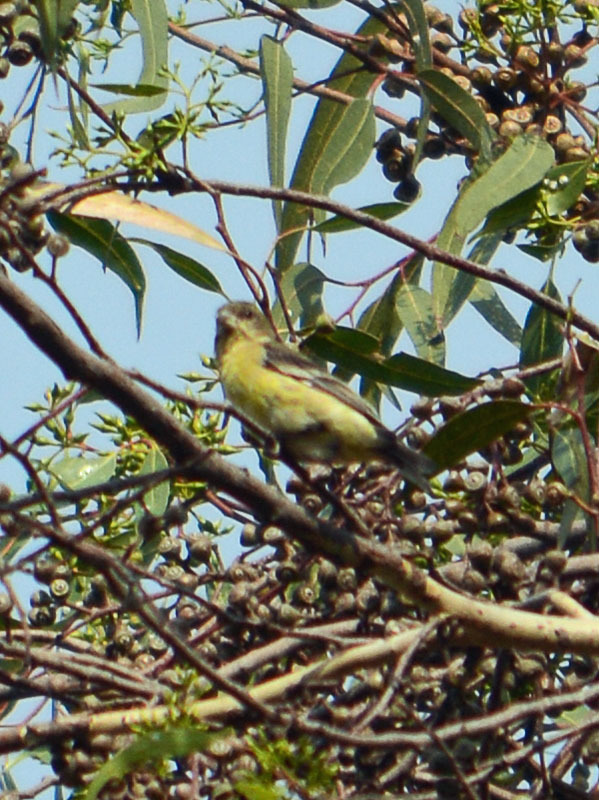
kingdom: Animalia
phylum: Chordata
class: Aves
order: Passeriformes
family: Fringillidae
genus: Spinus
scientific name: Spinus psaltria
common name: Lesser goldfinch
